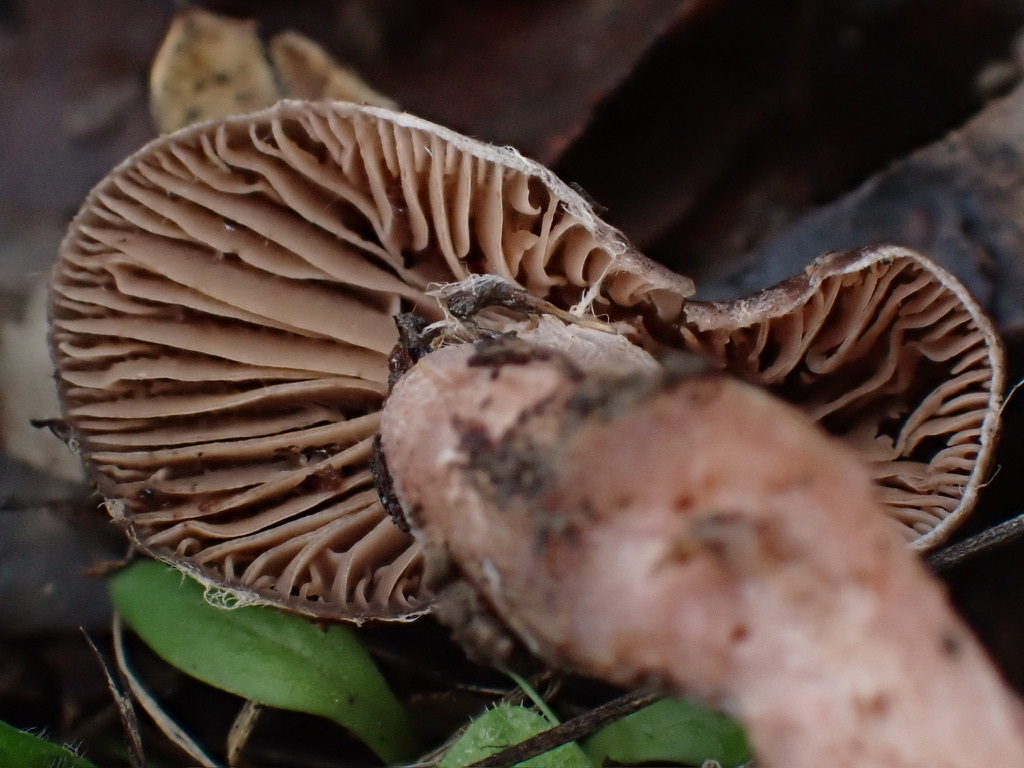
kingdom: Fungi
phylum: Basidiomycota
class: Agaricomycetes
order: Agaricales
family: Cortinariaceae
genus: Cortinarius
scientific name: Cortinarius ohlone
